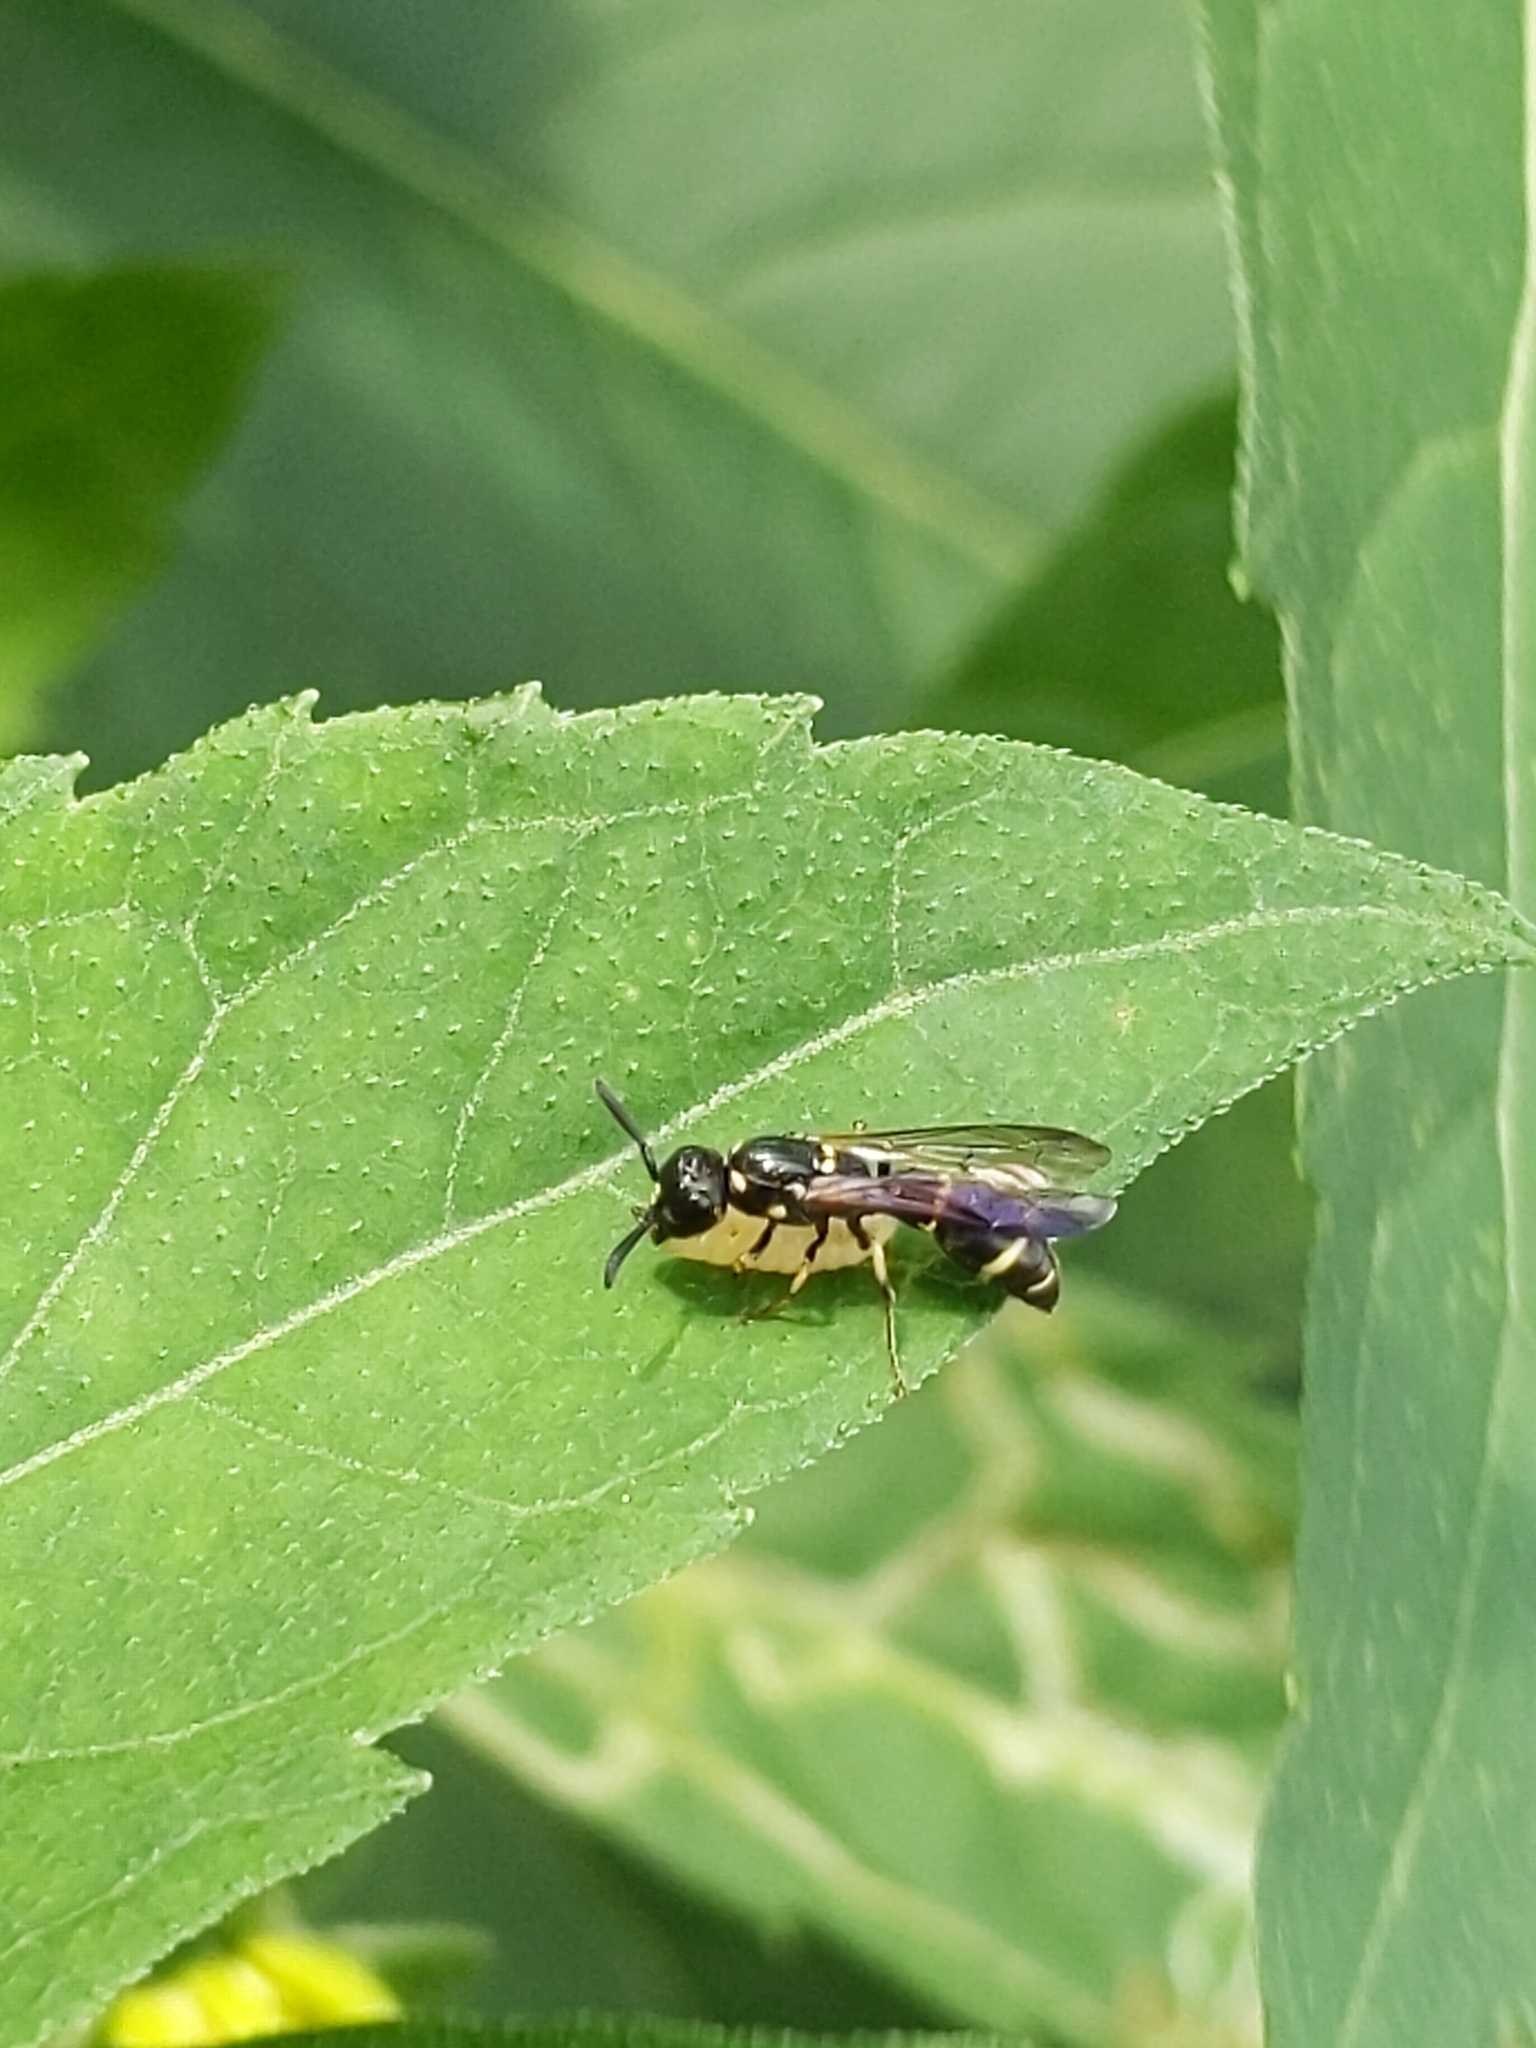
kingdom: Animalia
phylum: Arthropoda
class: Insecta
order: Hymenoptera
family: Eumenidae
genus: Symmorphus
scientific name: Symmorphus
